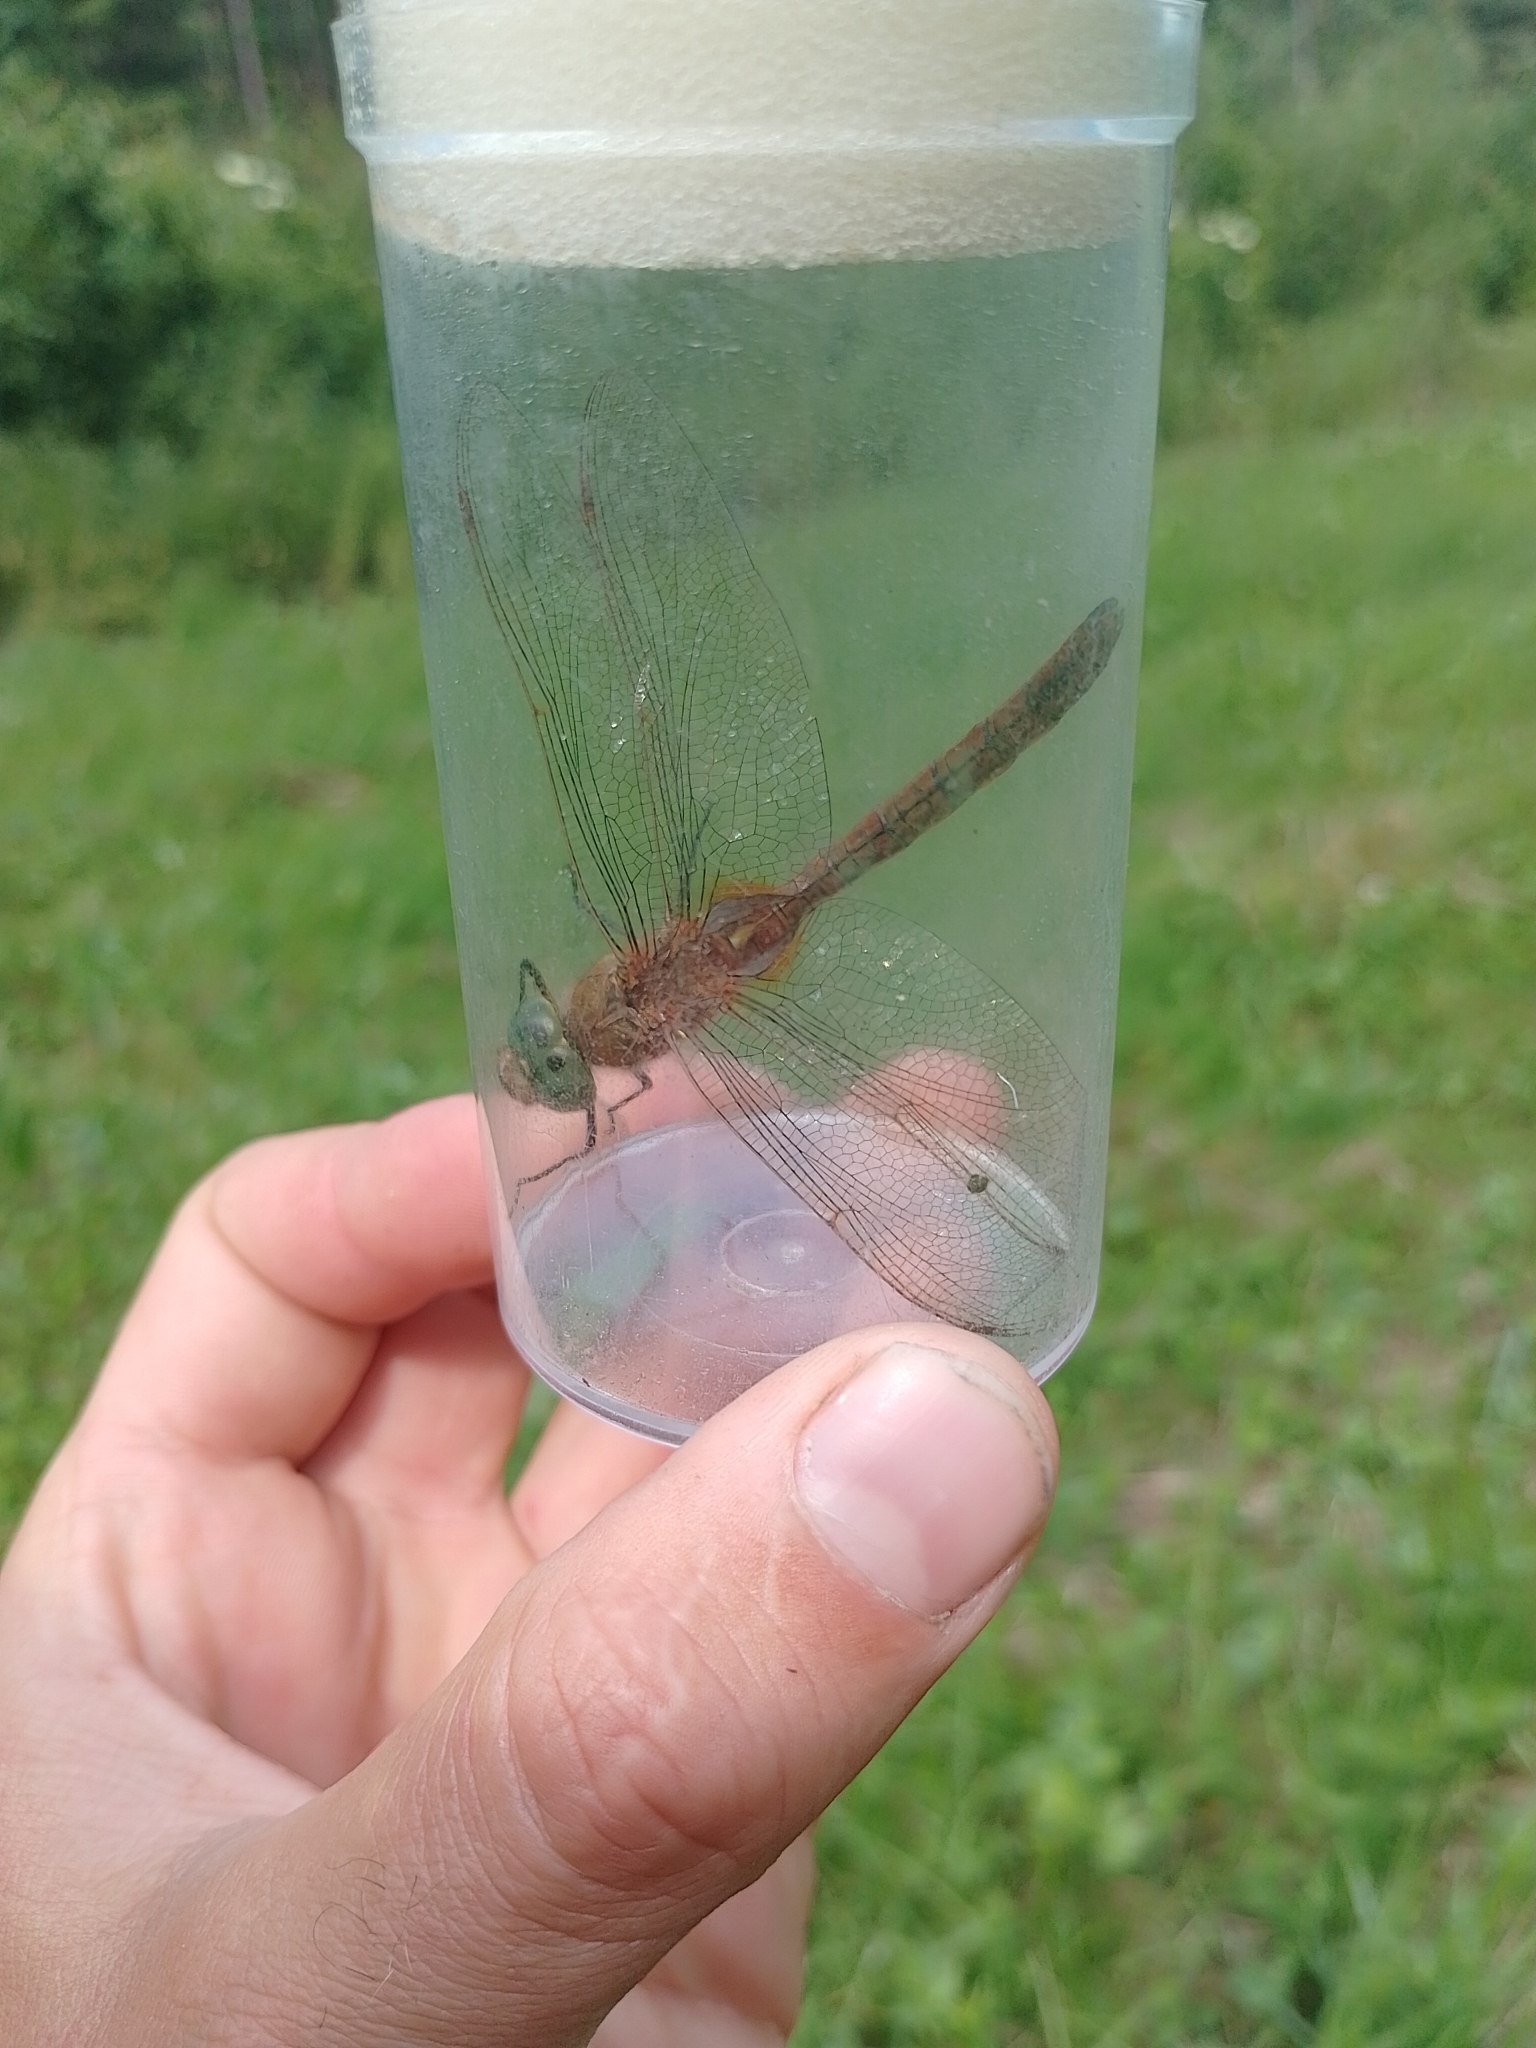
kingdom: Animalia
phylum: Arthropoda
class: Insecta
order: Odonata
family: Aeshnidae
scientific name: Aeshnidae
